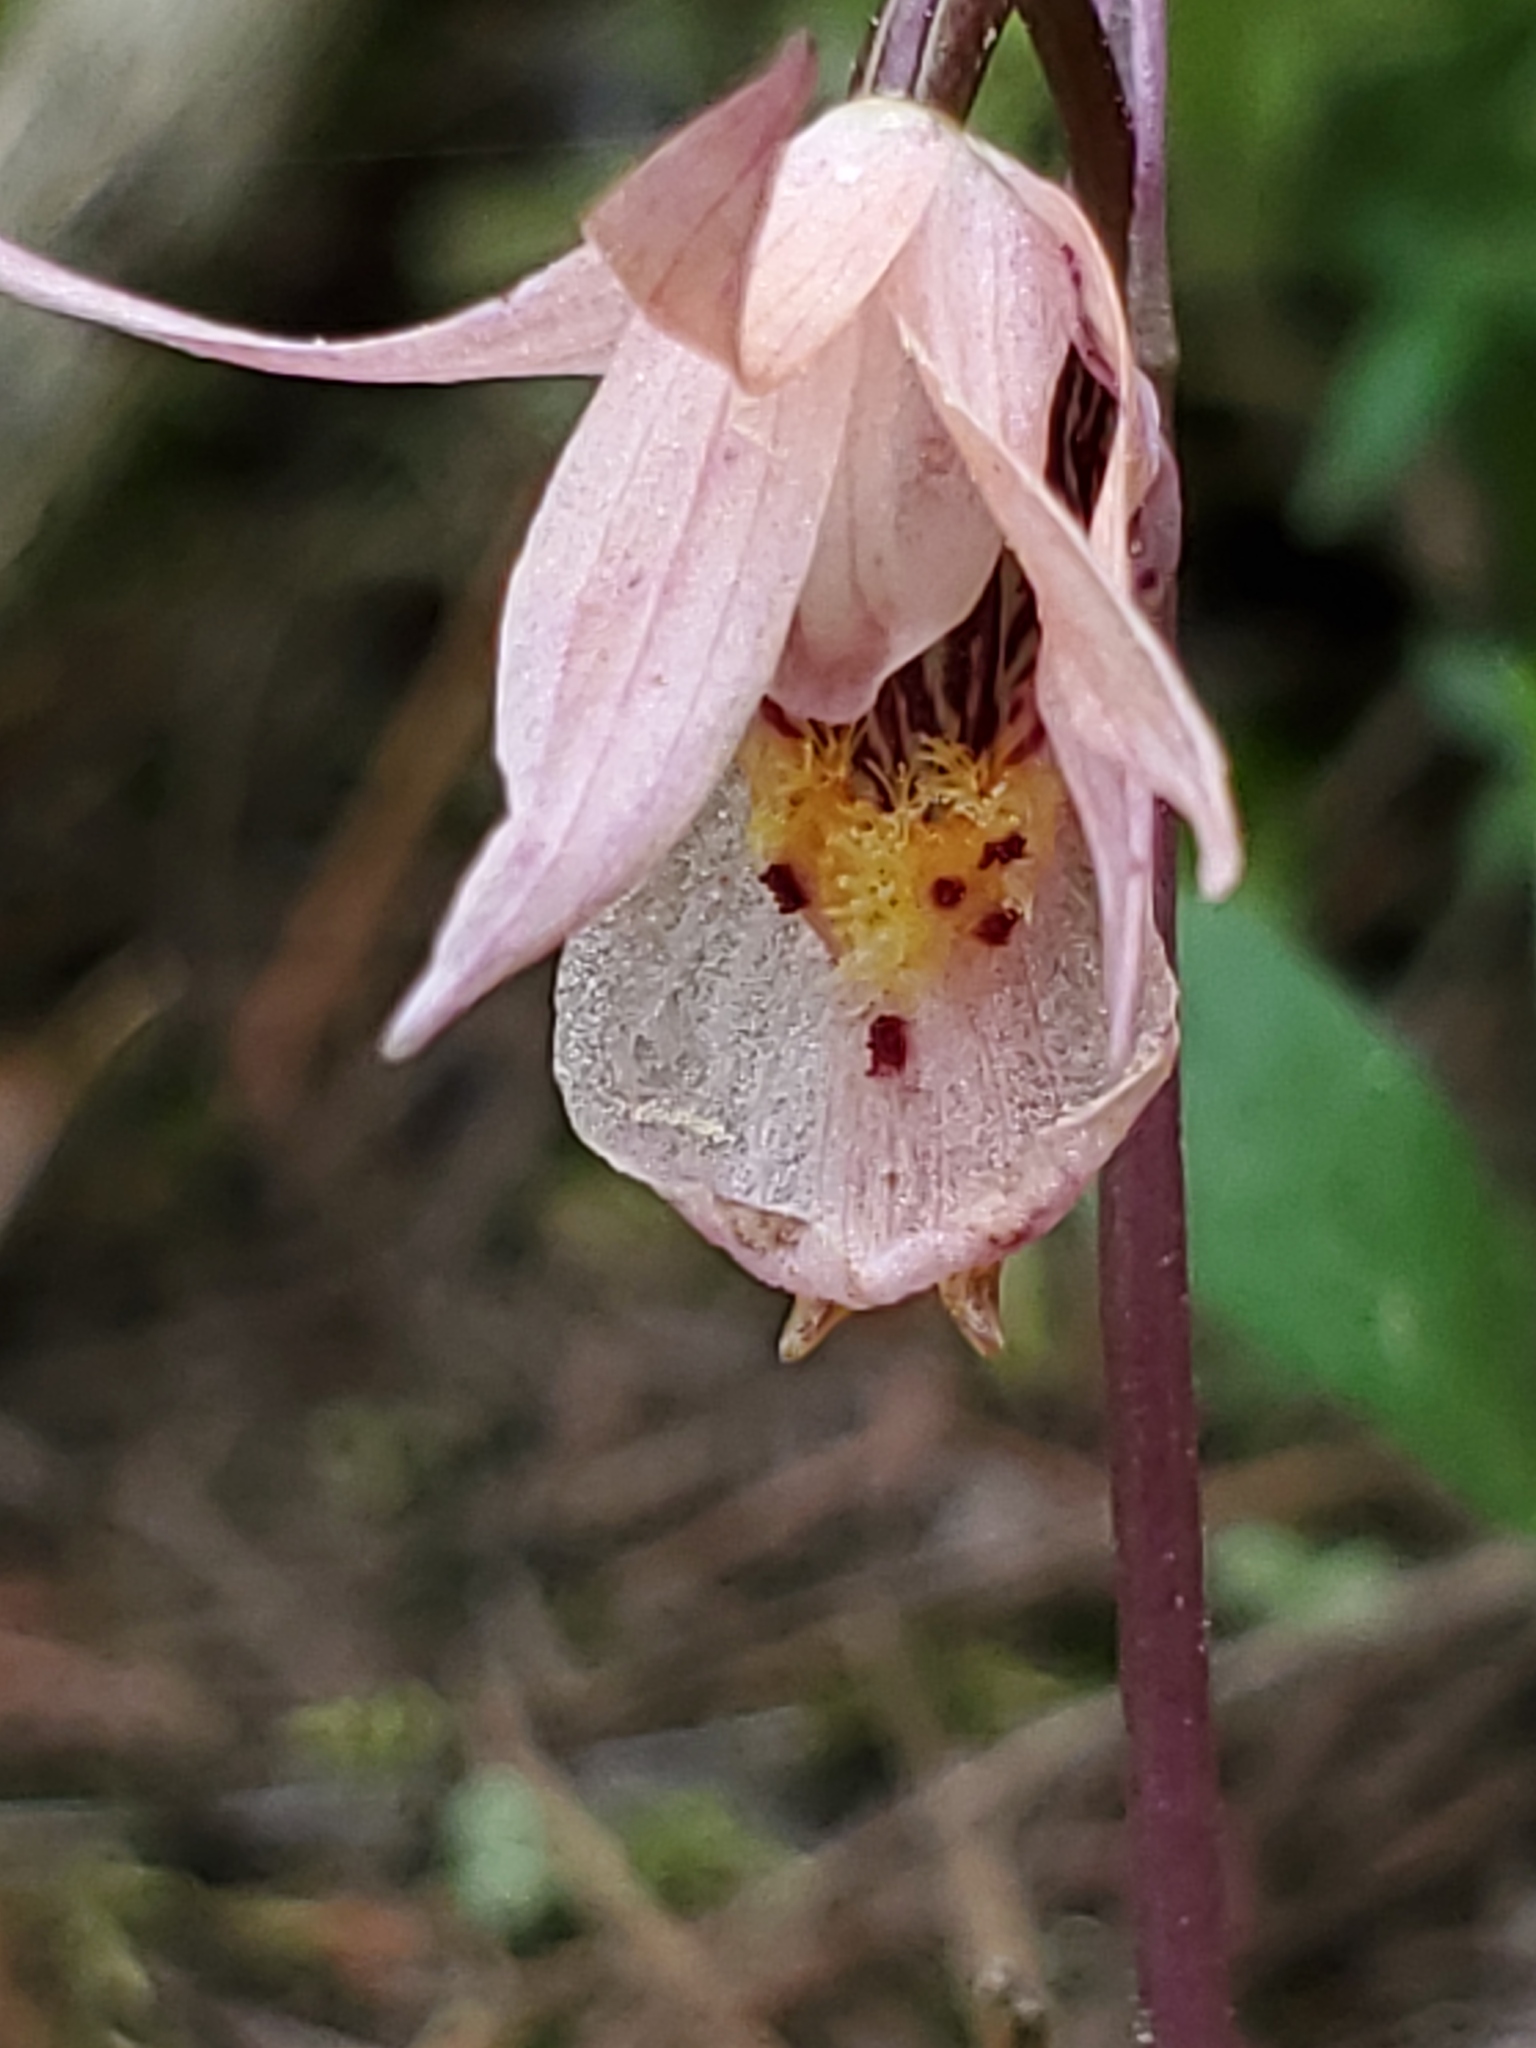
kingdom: Plantae
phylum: Tracheophyta
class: Liliopsida
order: Asparagales
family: Orchidaceae
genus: Calypso
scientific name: Calypso bulbosa
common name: Calypso
